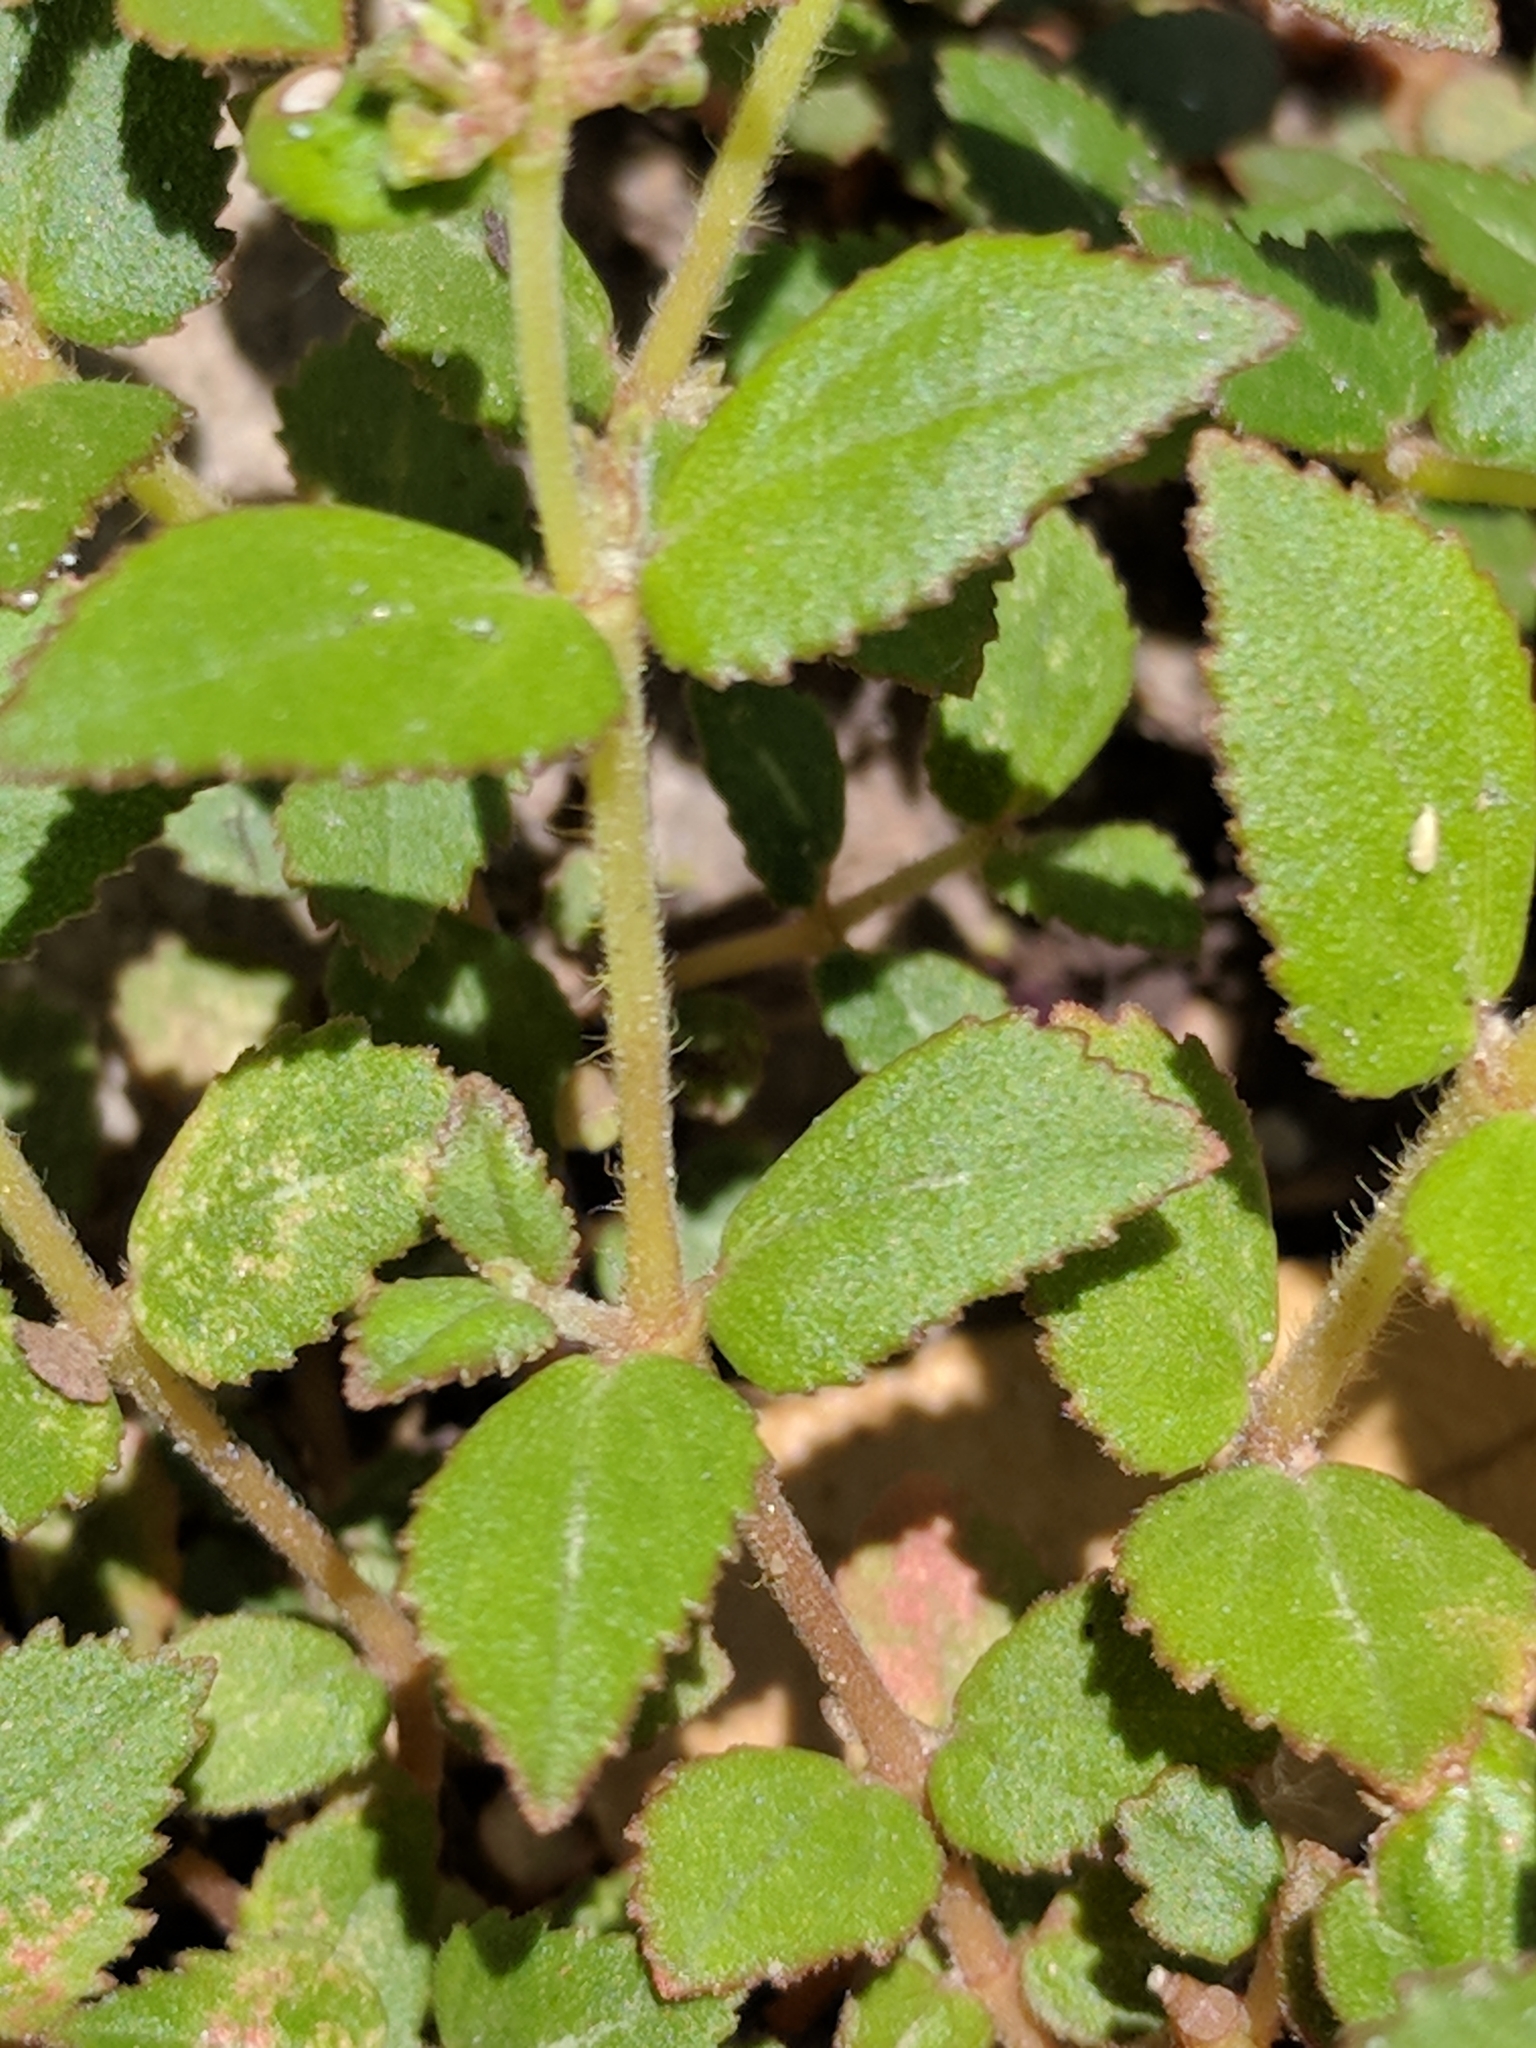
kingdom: Plantae
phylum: Tracheophyta
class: Magnoliopsida
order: Malpighiales
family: Euphorbiaceae
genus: Euphorbia
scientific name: Euphorbia ophthalmica
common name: Florida hammock sandmat
